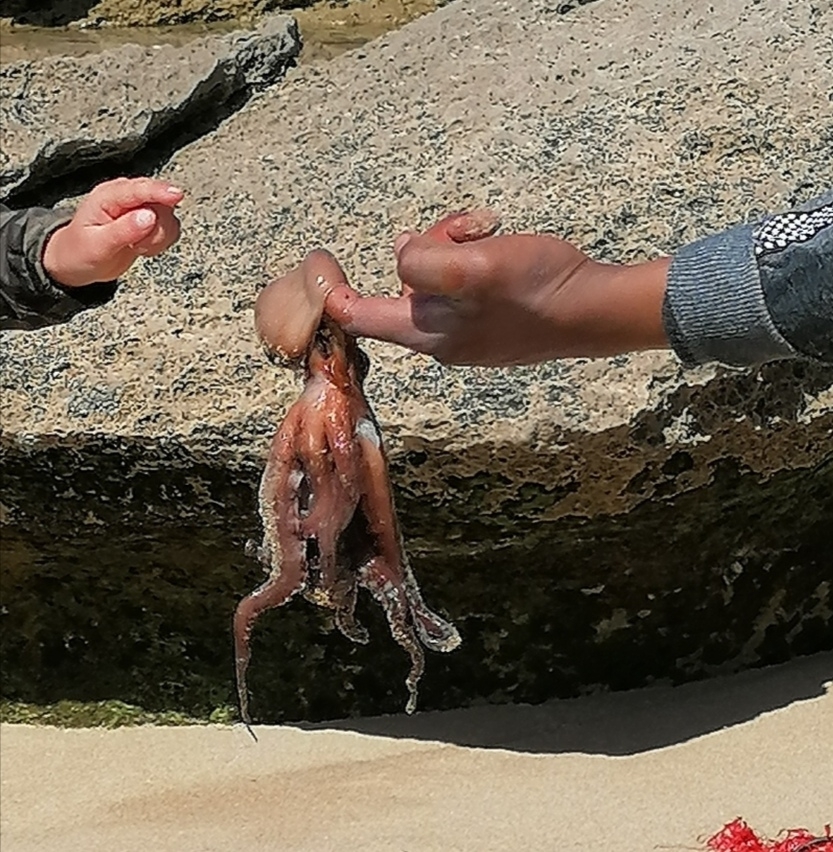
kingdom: Animalia
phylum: Mollusca
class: Cephalopoda
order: Octopoda
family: Octopodidae
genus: Octopus
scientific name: Octopus vulgaris
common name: Common octopus
